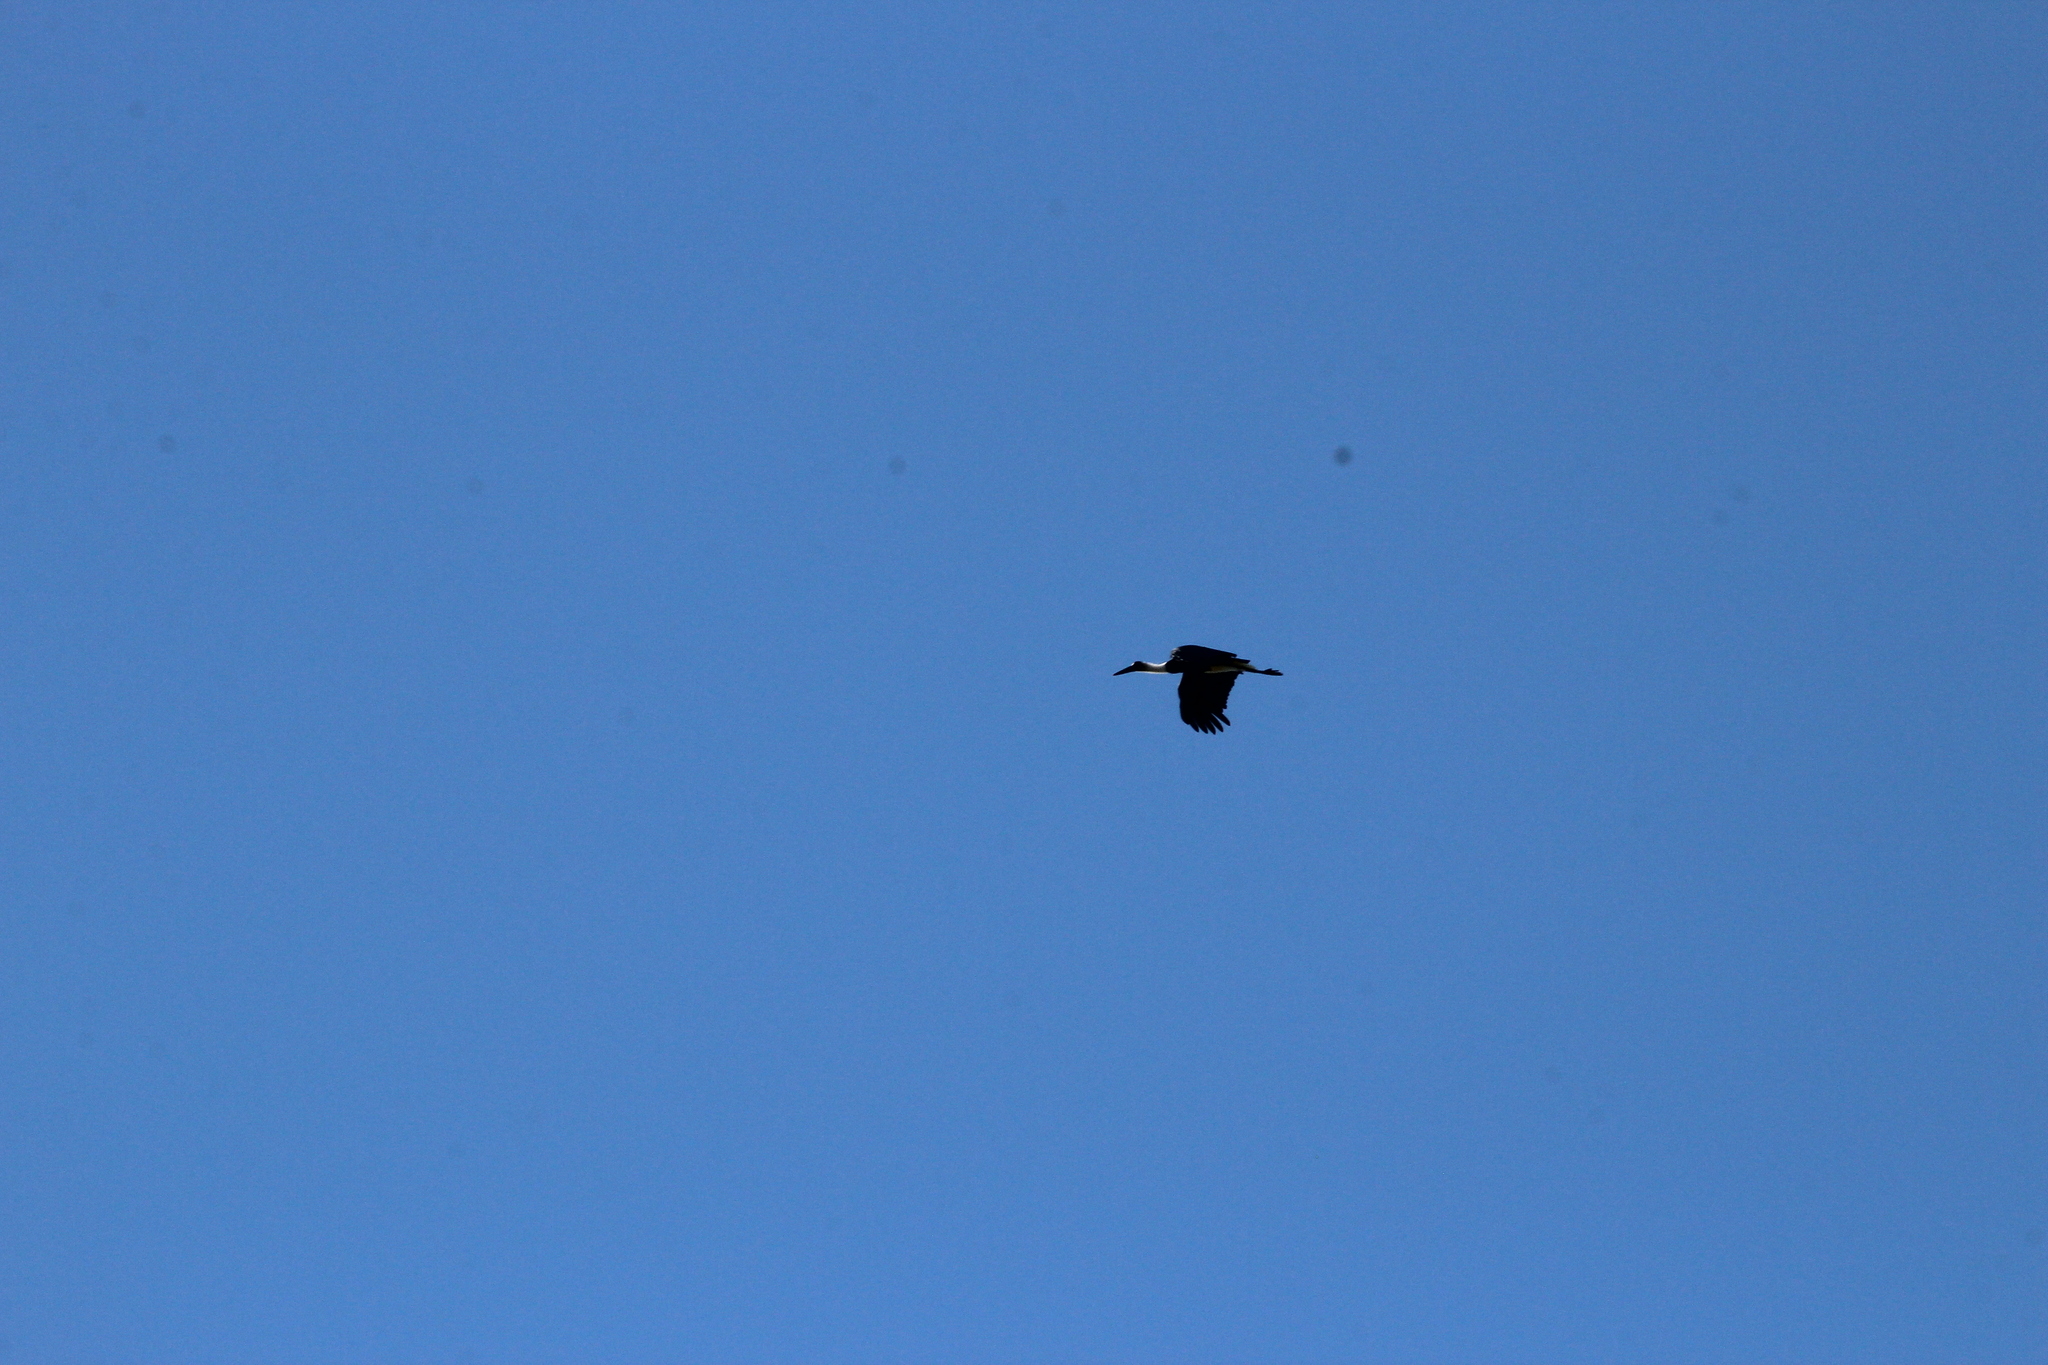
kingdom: Animalia
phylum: Chordata
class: Aves
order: Ciconiiformes
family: Ciconiidae
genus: Ciconia
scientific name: Ciconia microscelis
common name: African woollyneck
